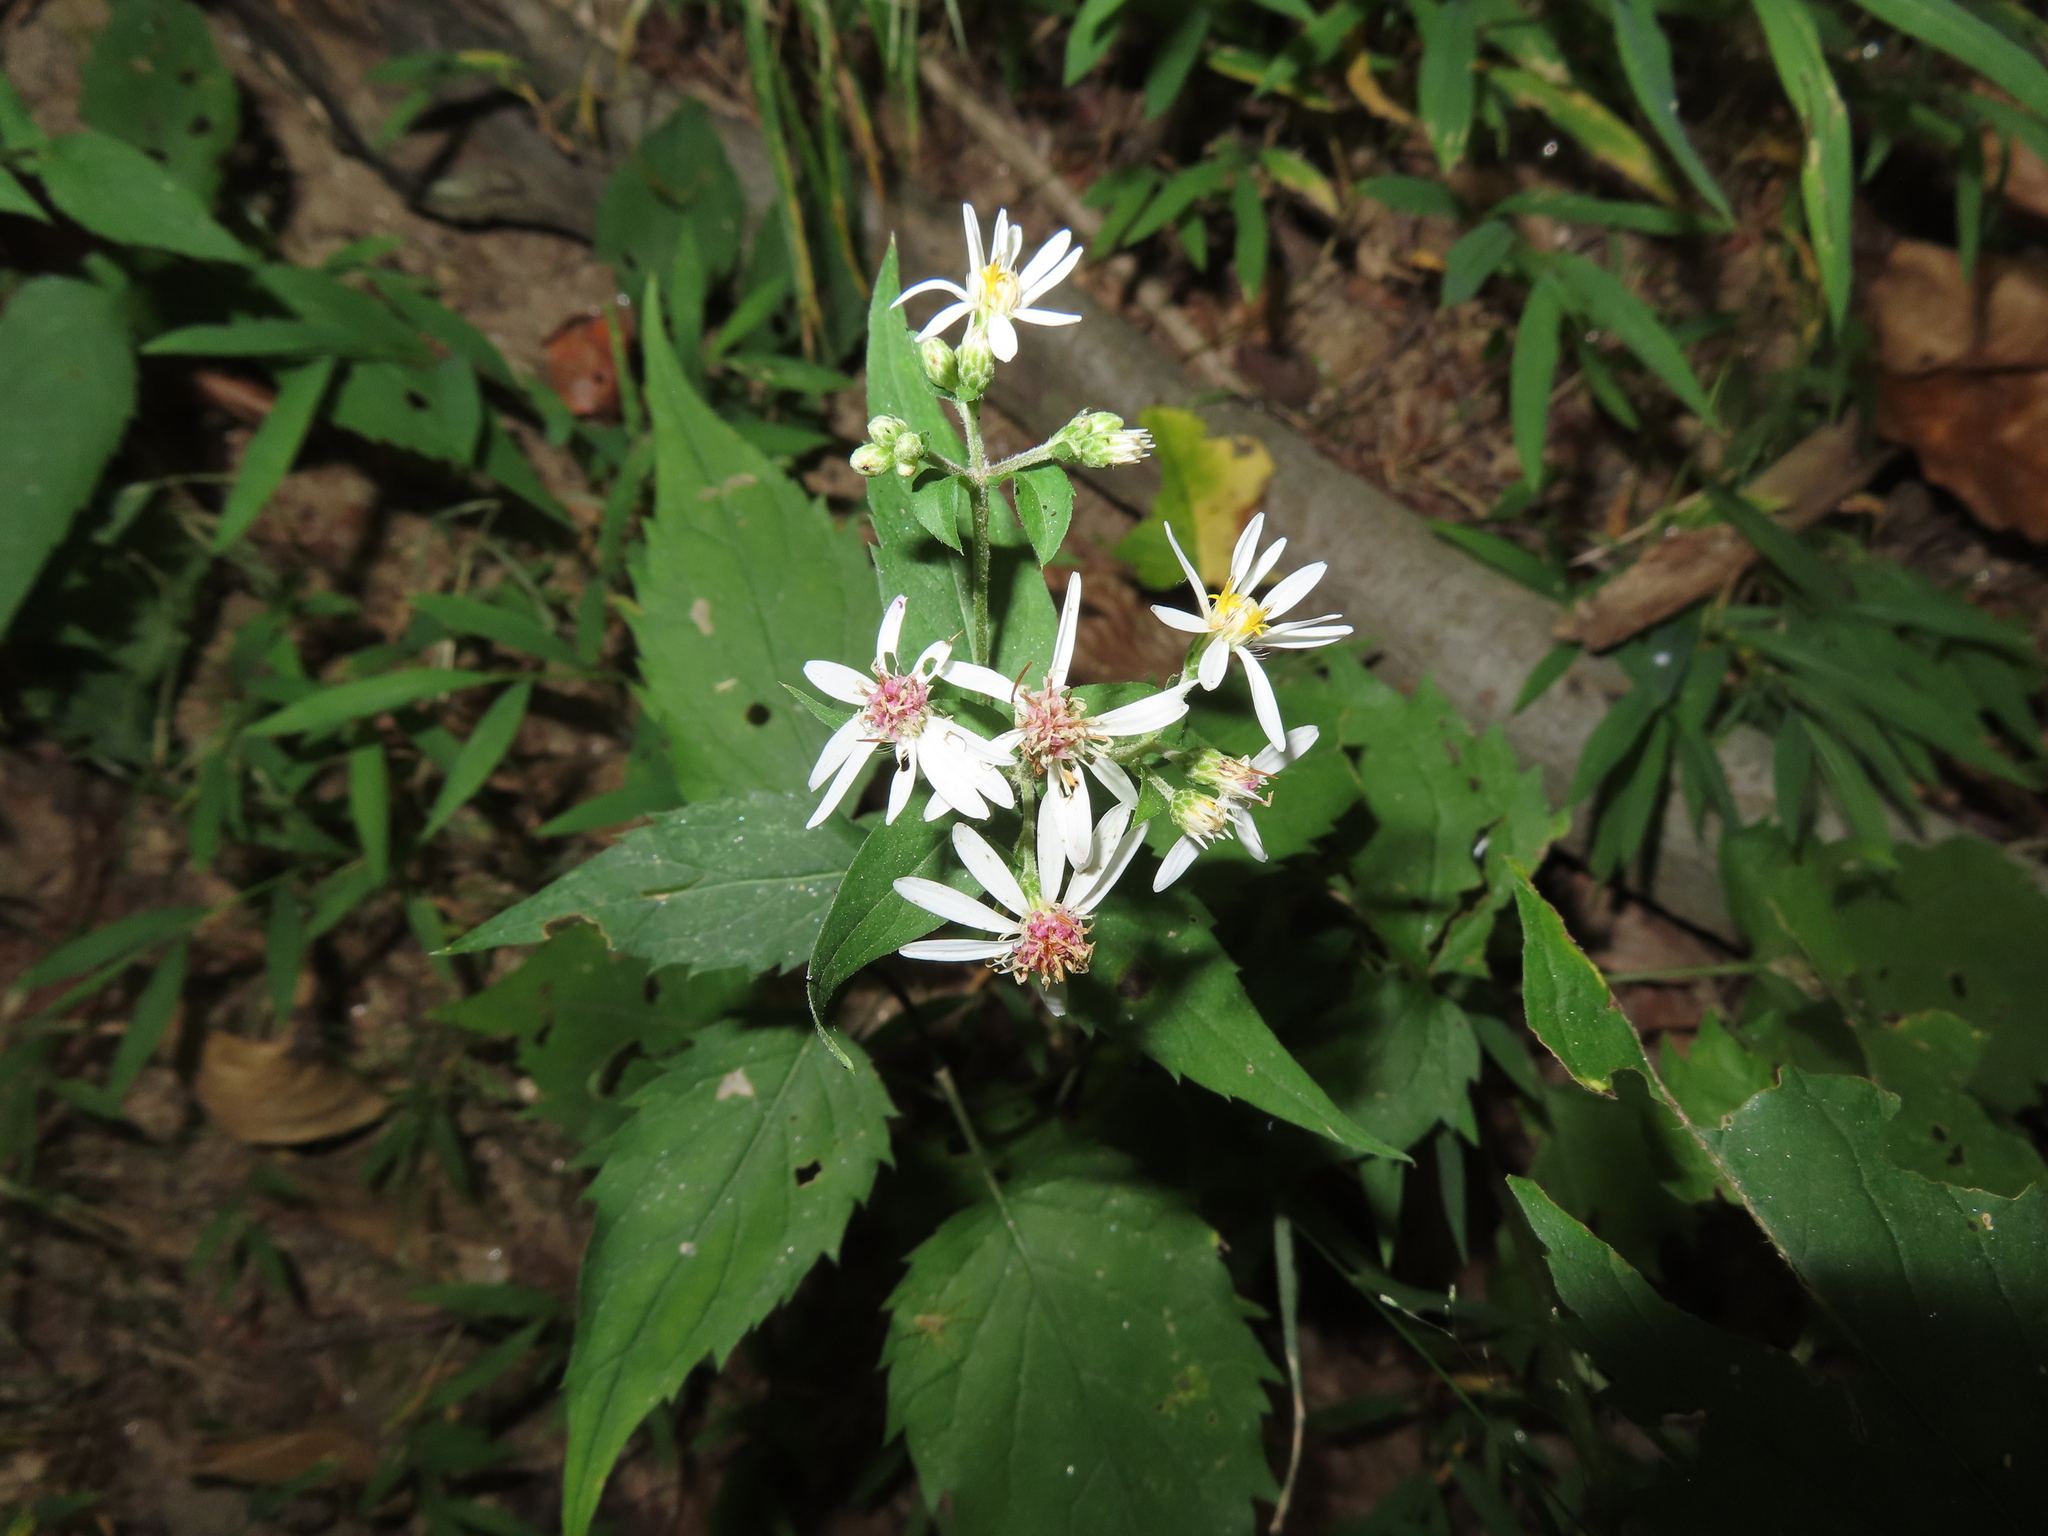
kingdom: Plantae
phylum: Tracheophyta
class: Magnoliopsida
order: Asterales
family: Asteraceae
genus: Eurybia
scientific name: Eurybia divaricata
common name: White wood aster
